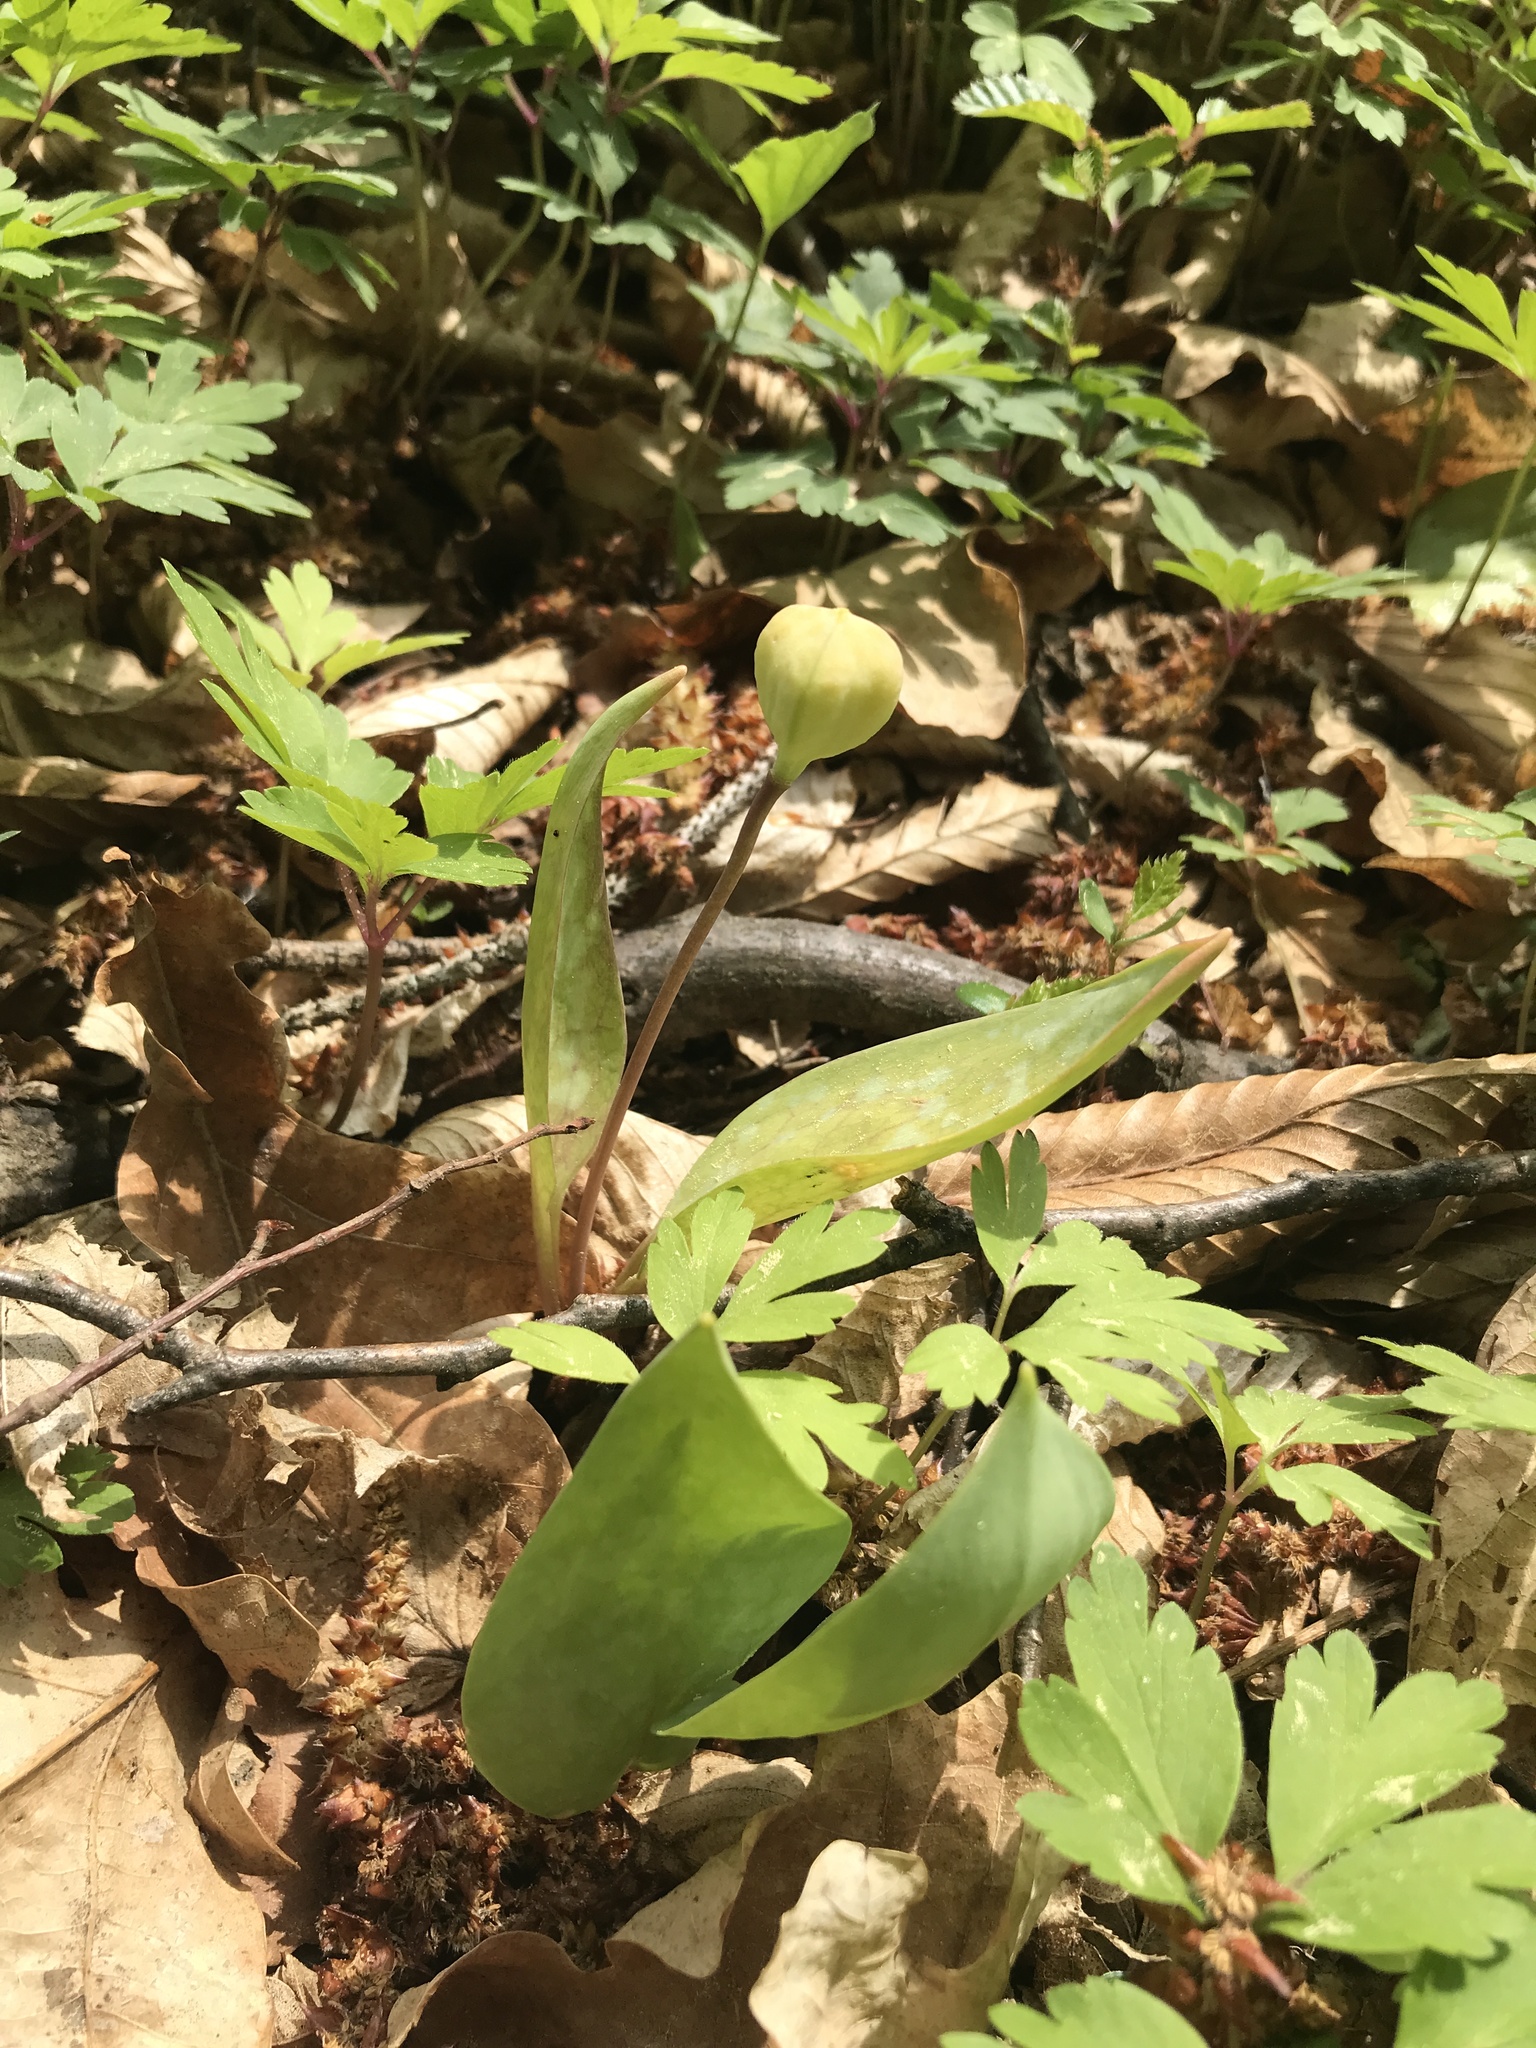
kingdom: Plantae
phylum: Tracheophyta
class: Liliopsida
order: Liliales
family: Liliaceae
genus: Erythronium
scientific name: Erythronium dens-canis
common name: Dog's-tooth-violet
